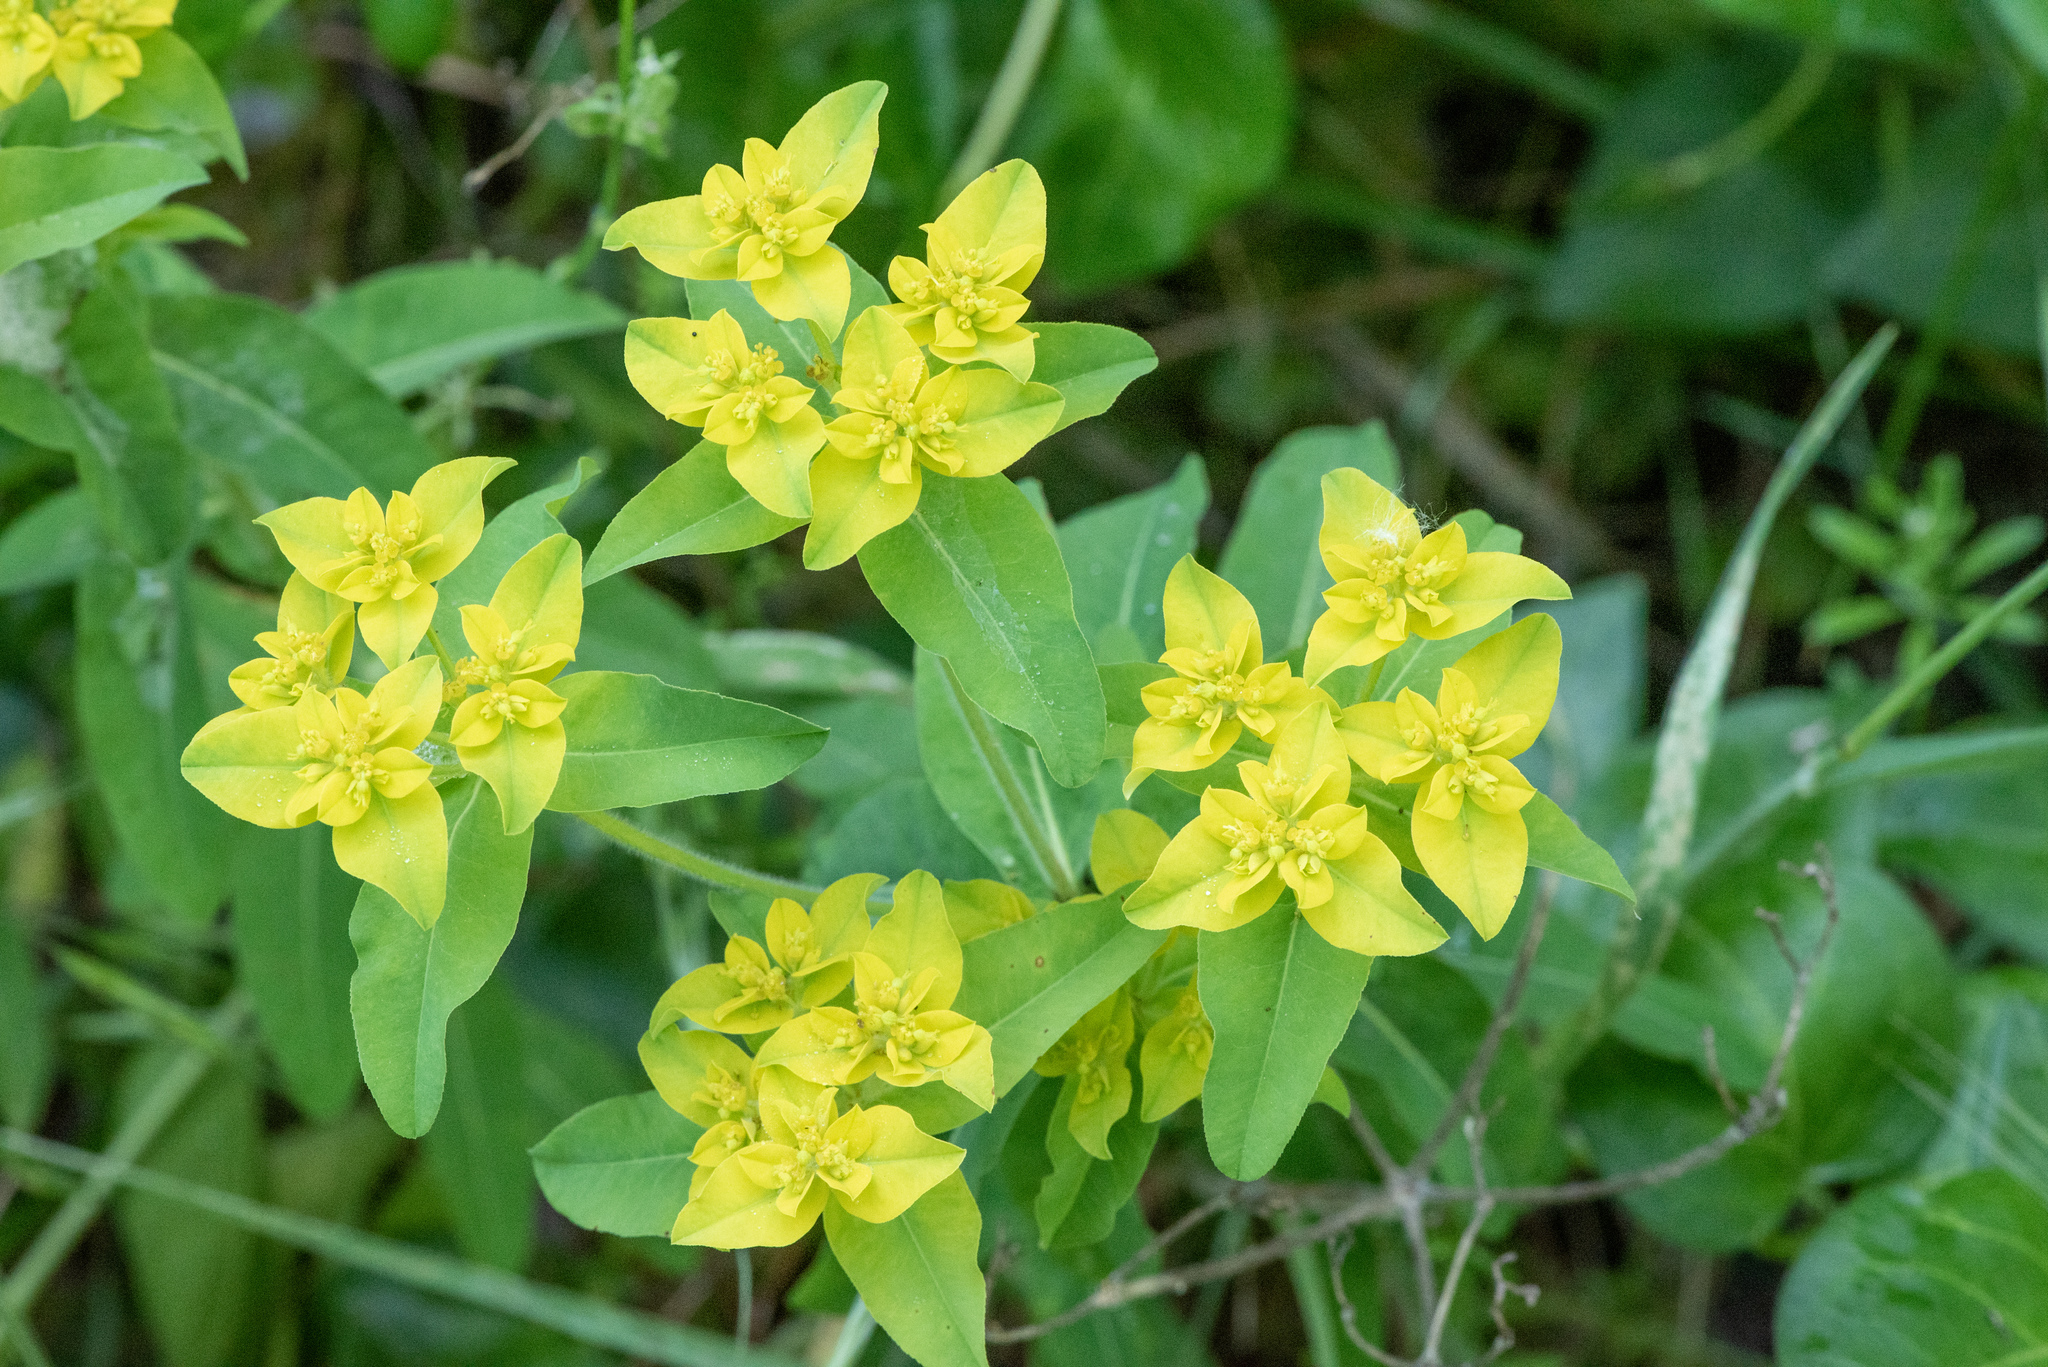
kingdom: Plantae
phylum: Tracheophyta
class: Magnoliopsida
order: Malpighiales
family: Euphorbiaceae
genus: Euphorbia
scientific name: Euphorbia oblongata
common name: Balkan spurge
